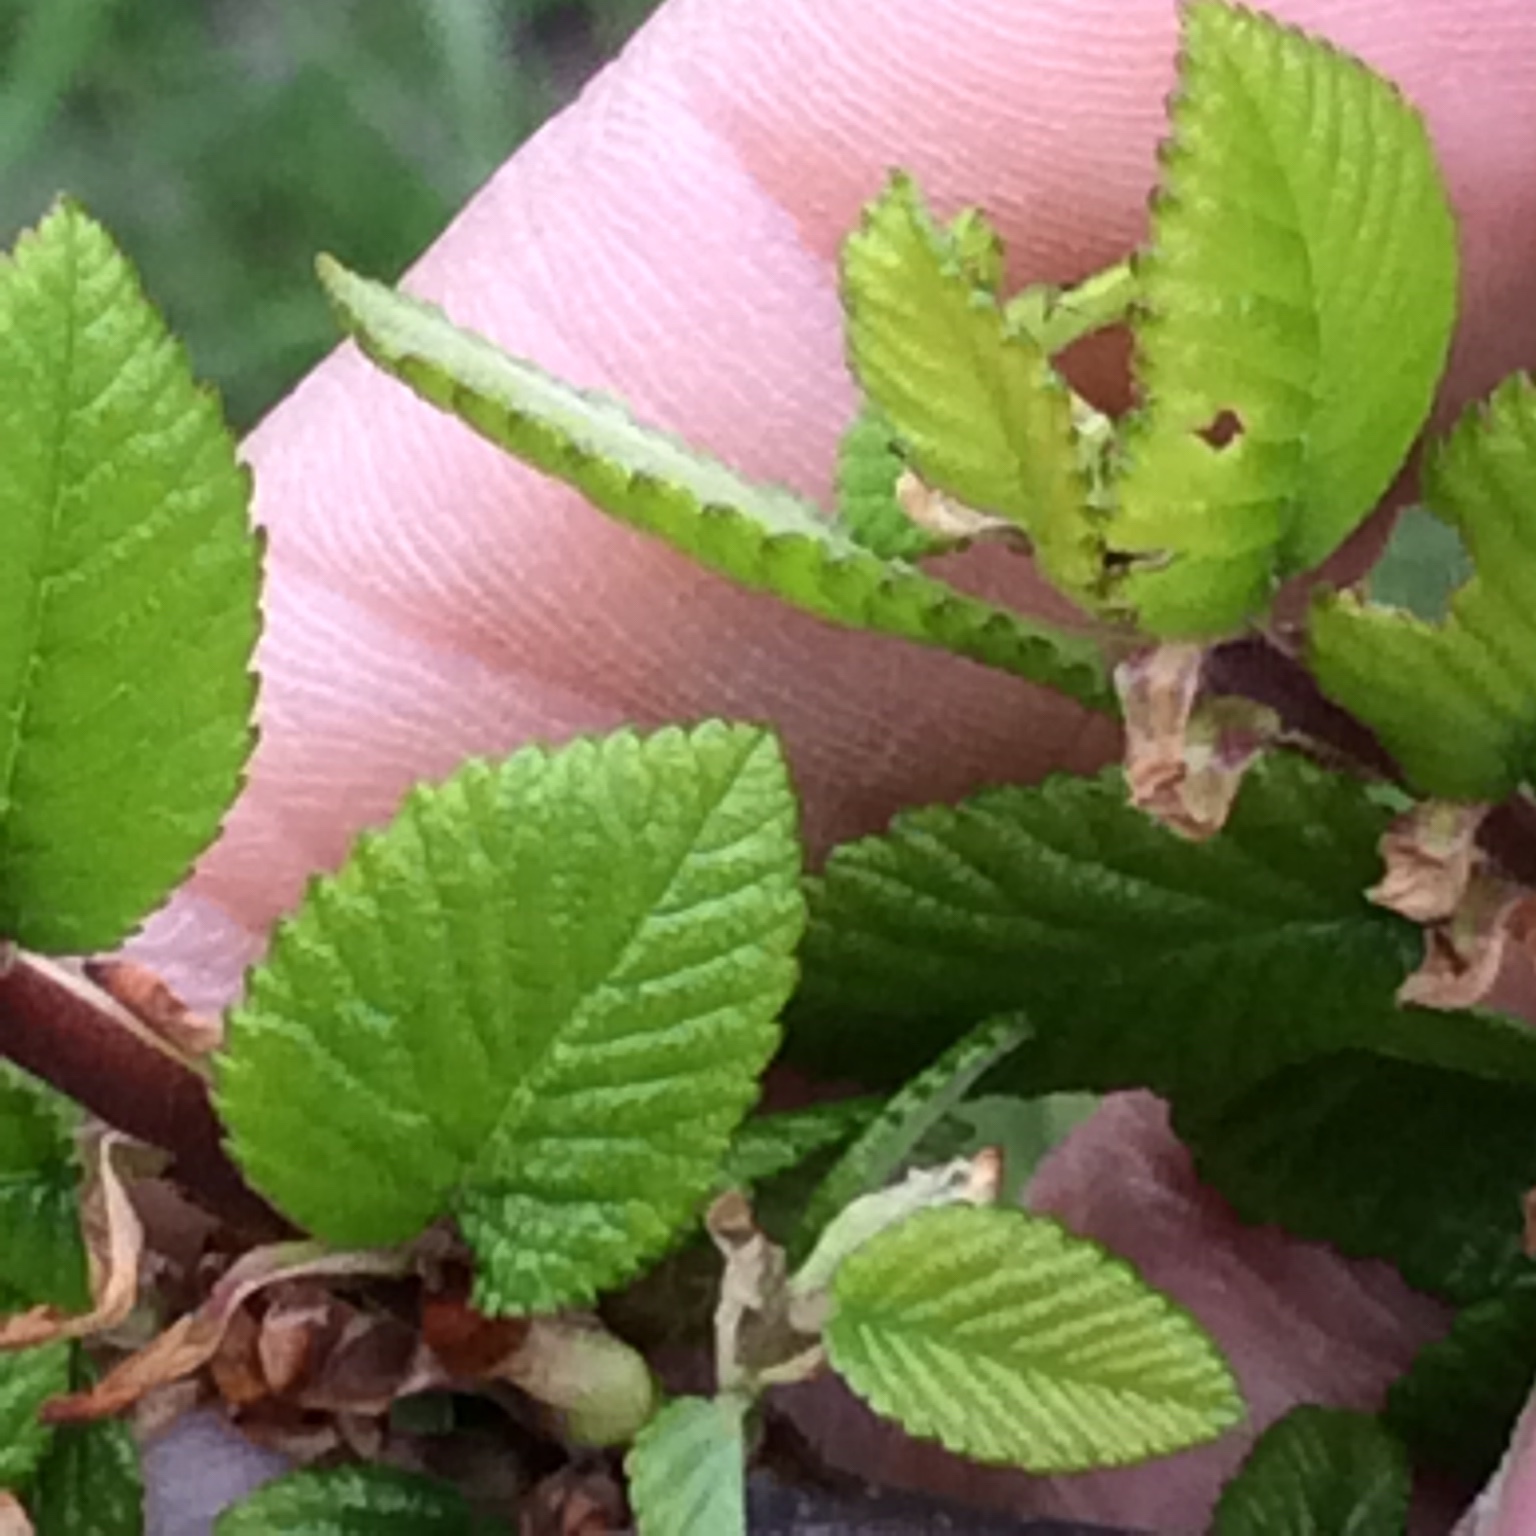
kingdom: Plantae
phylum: Tracheophyta
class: Magnoliopsida
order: Rosales
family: Ulmaceae
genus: Ulmus
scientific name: Ulmus crassifolia
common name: Basket elm
